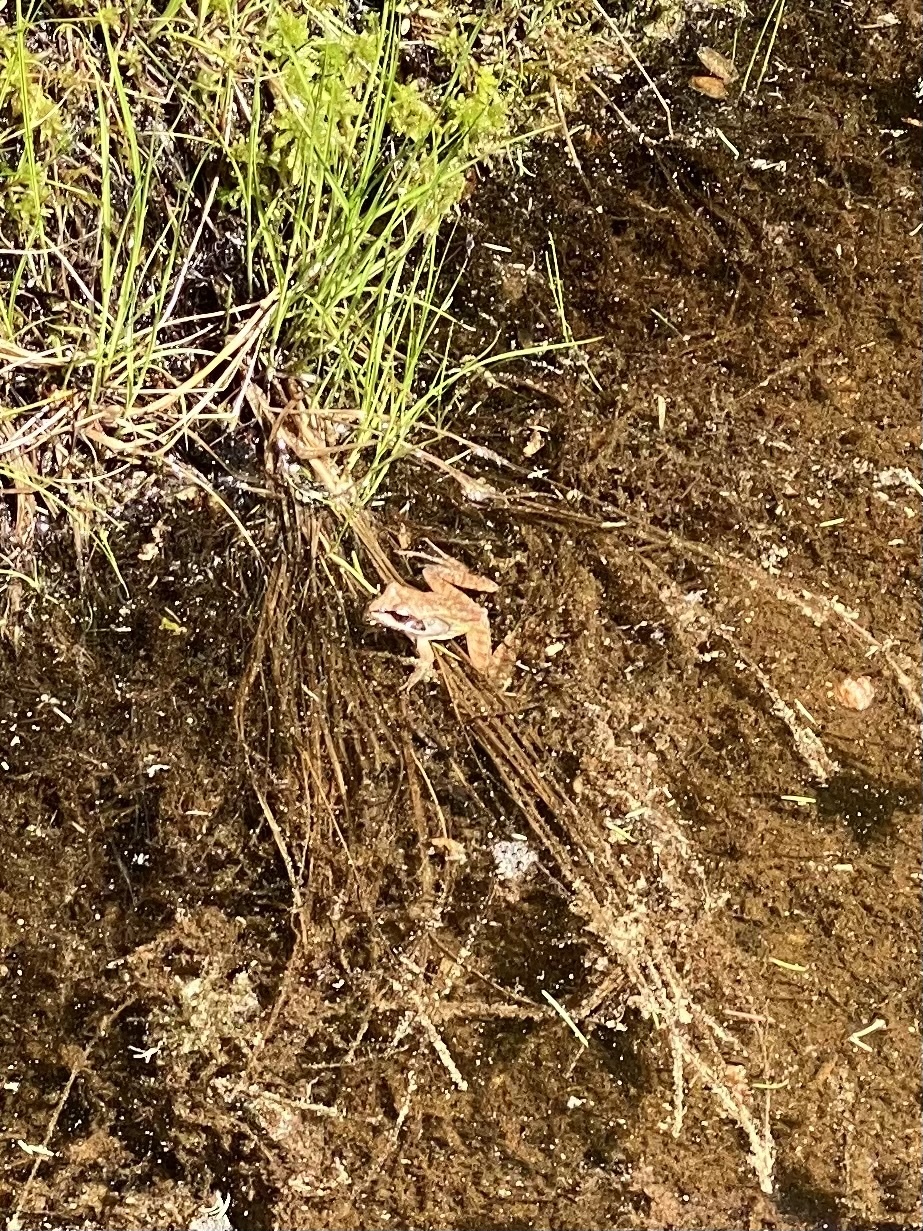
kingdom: Animalia
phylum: Chordata
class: Amphibia
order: Anura
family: Ranidae
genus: Lithobates
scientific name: Lithobates sylvaticus
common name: Wood frog
